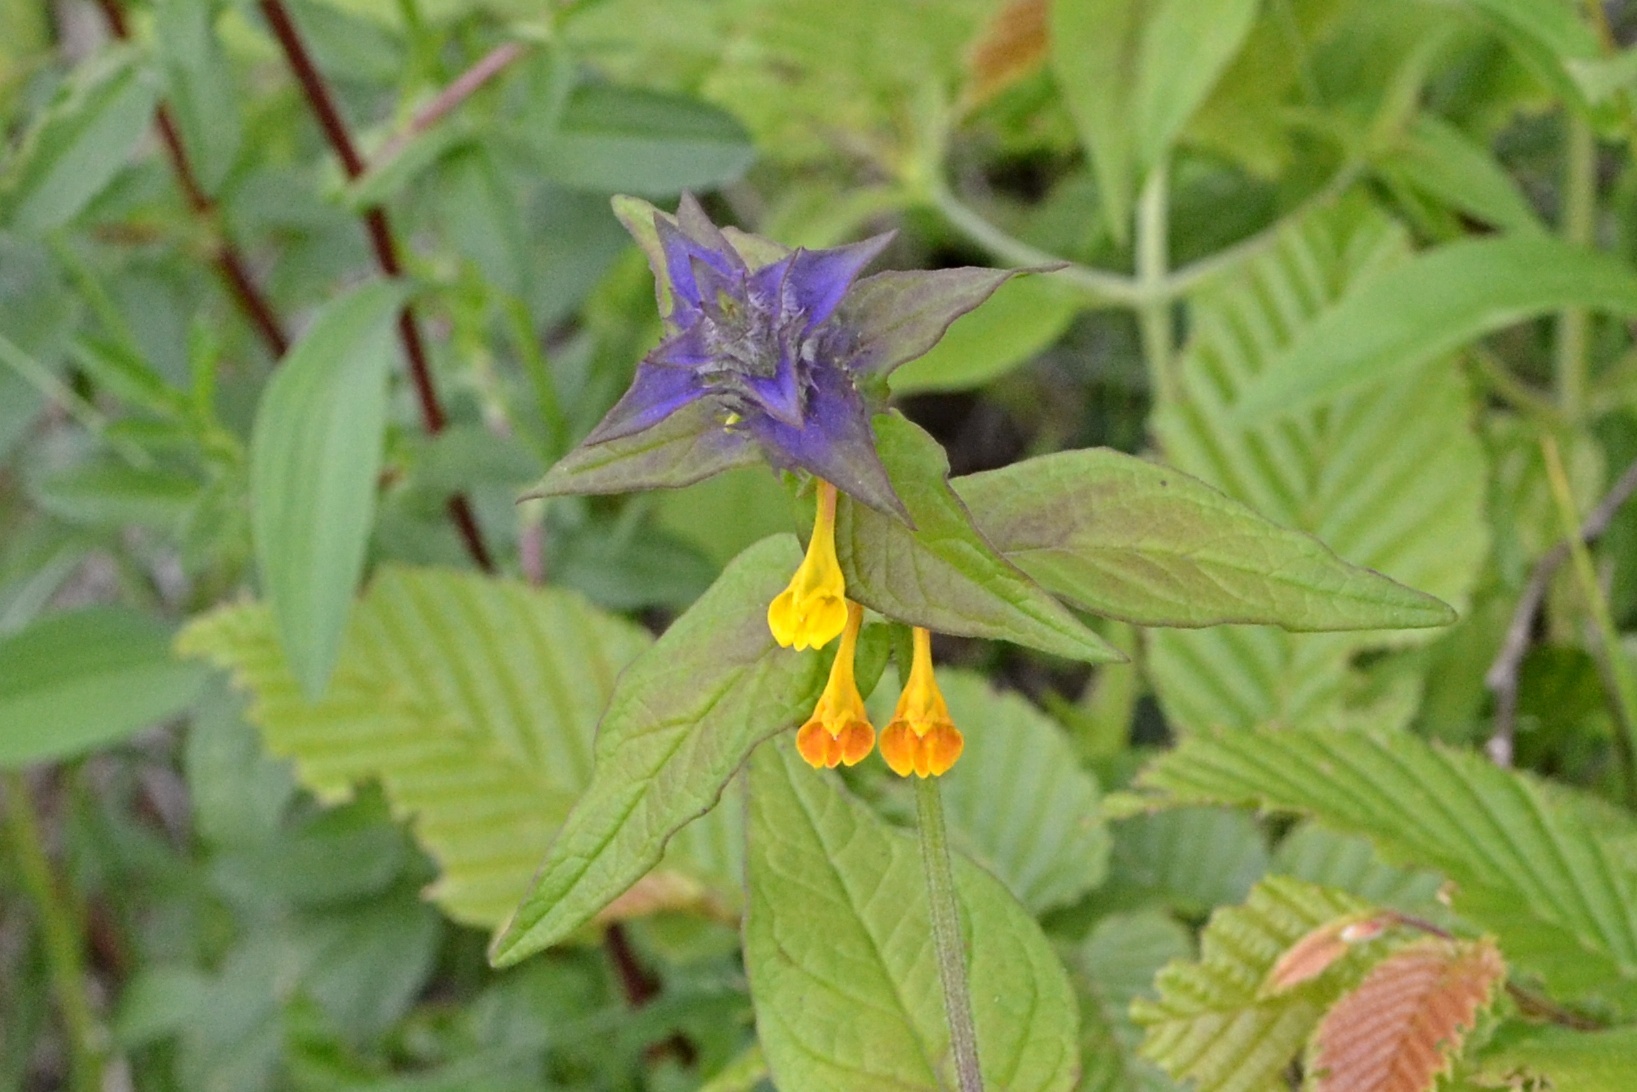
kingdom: Plantae
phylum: Tracheophyta
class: Magnoliopsida
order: Lamiales
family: Orobanchaceae
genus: Melampyrum
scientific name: Melampyrum nemorosum
